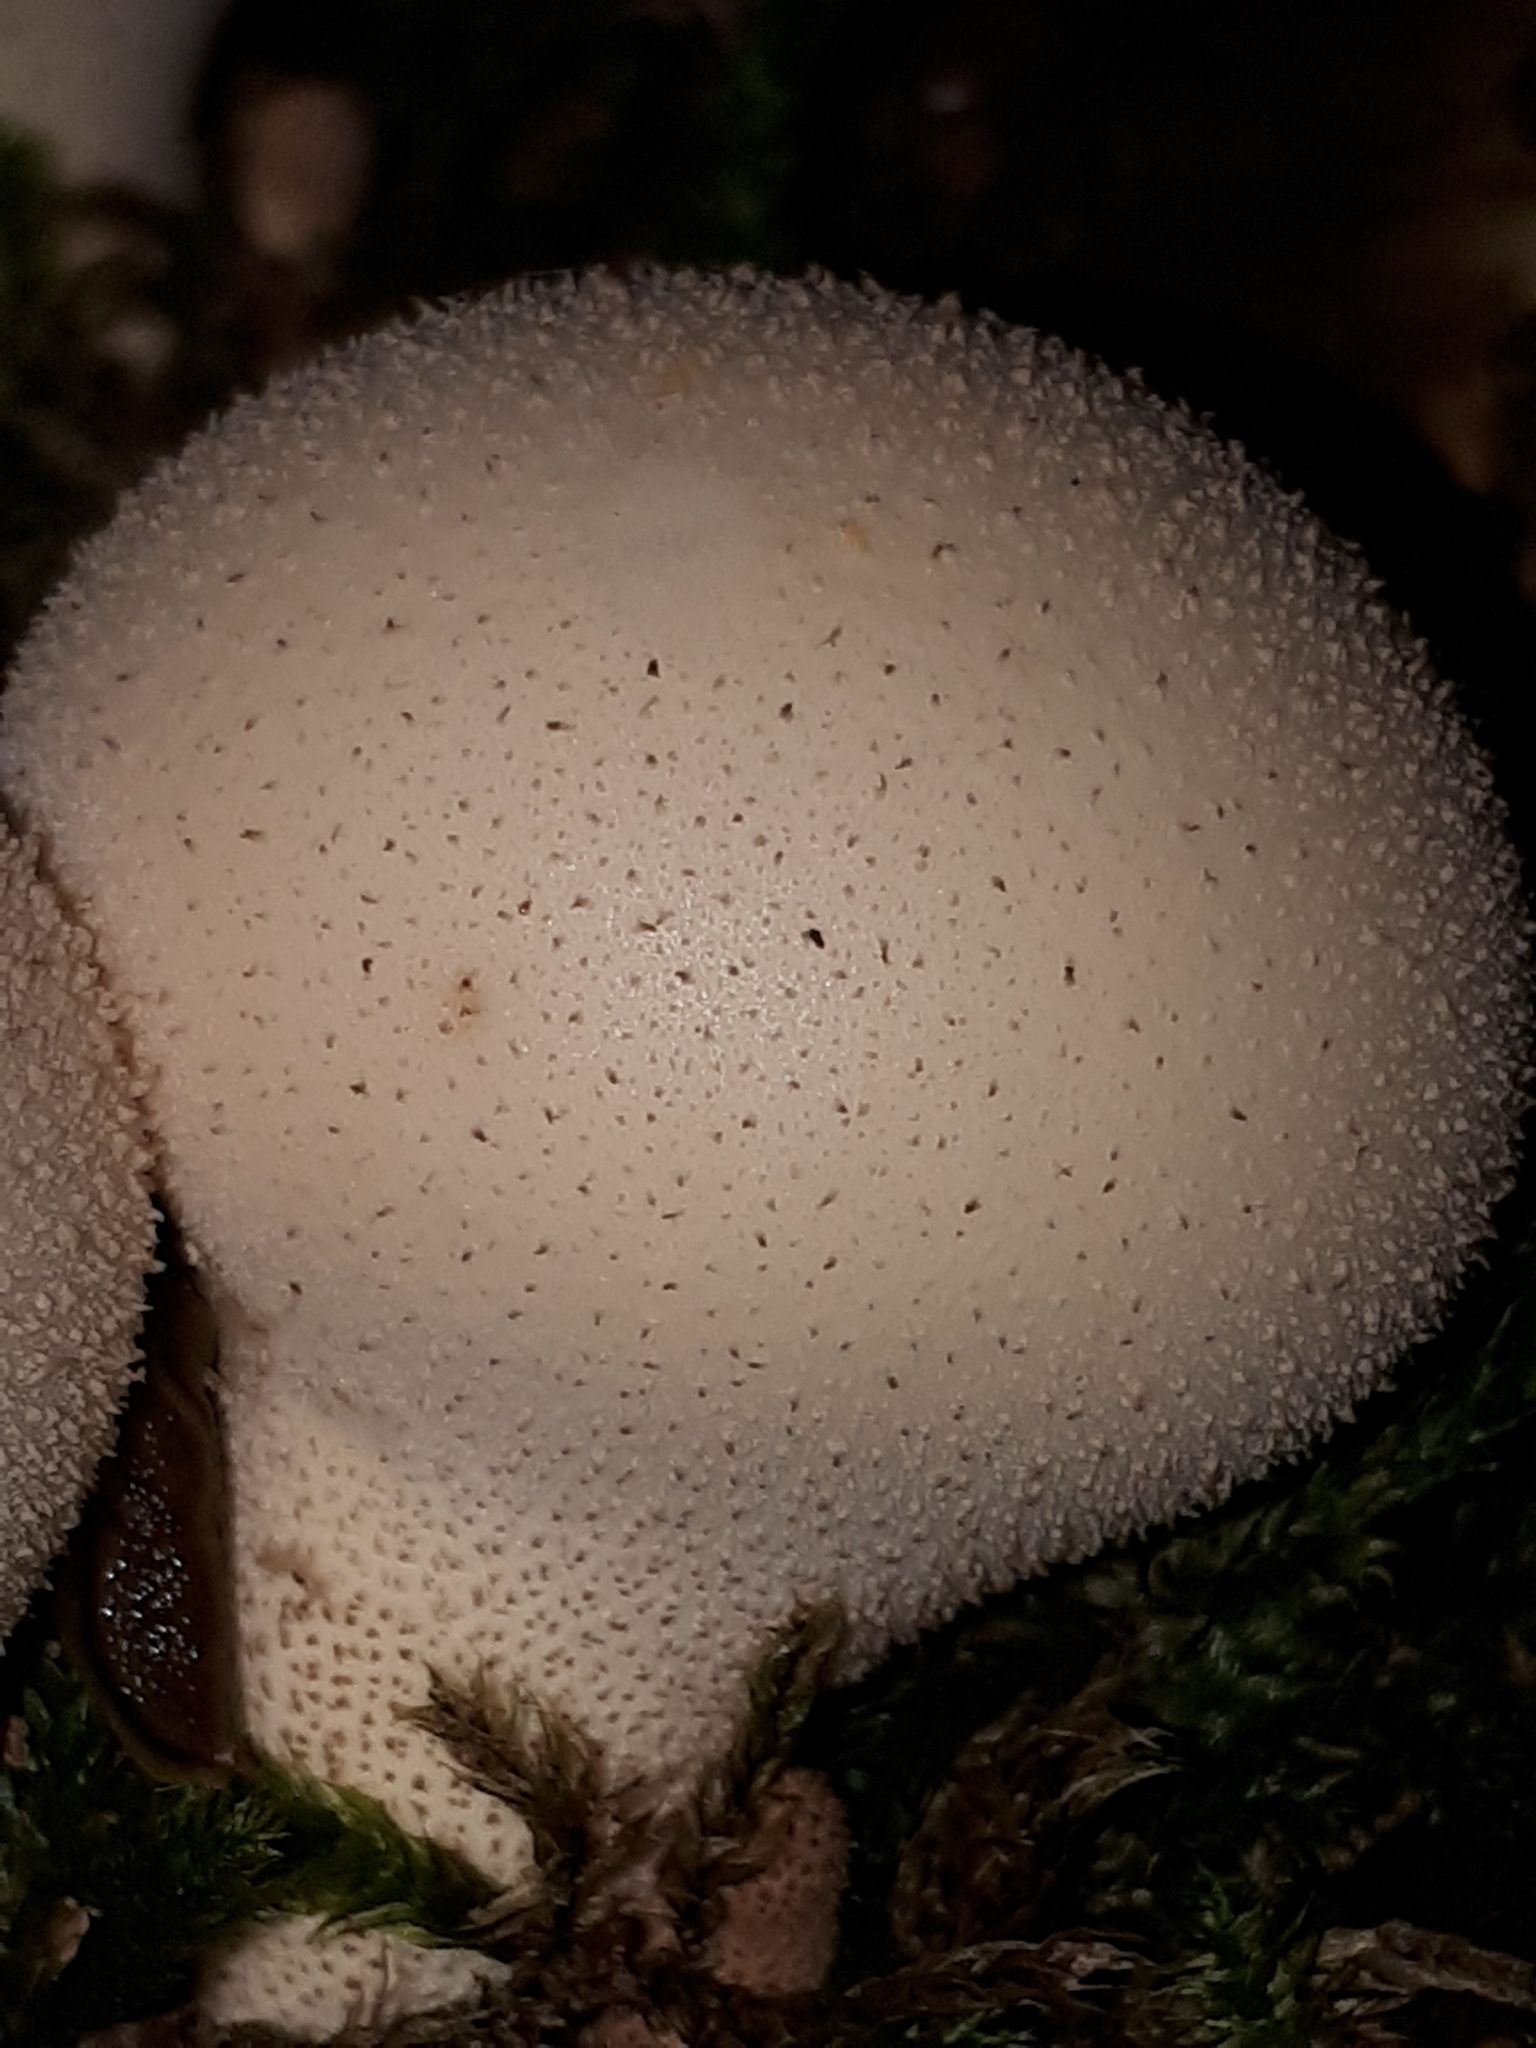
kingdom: Fungi
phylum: Basidiomycota
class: Agaricomycetes
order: Agaricales
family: Lycoperdaceae
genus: Apioperdon
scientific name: Apioperdon pyriforme
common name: Pear-shaped puffball
